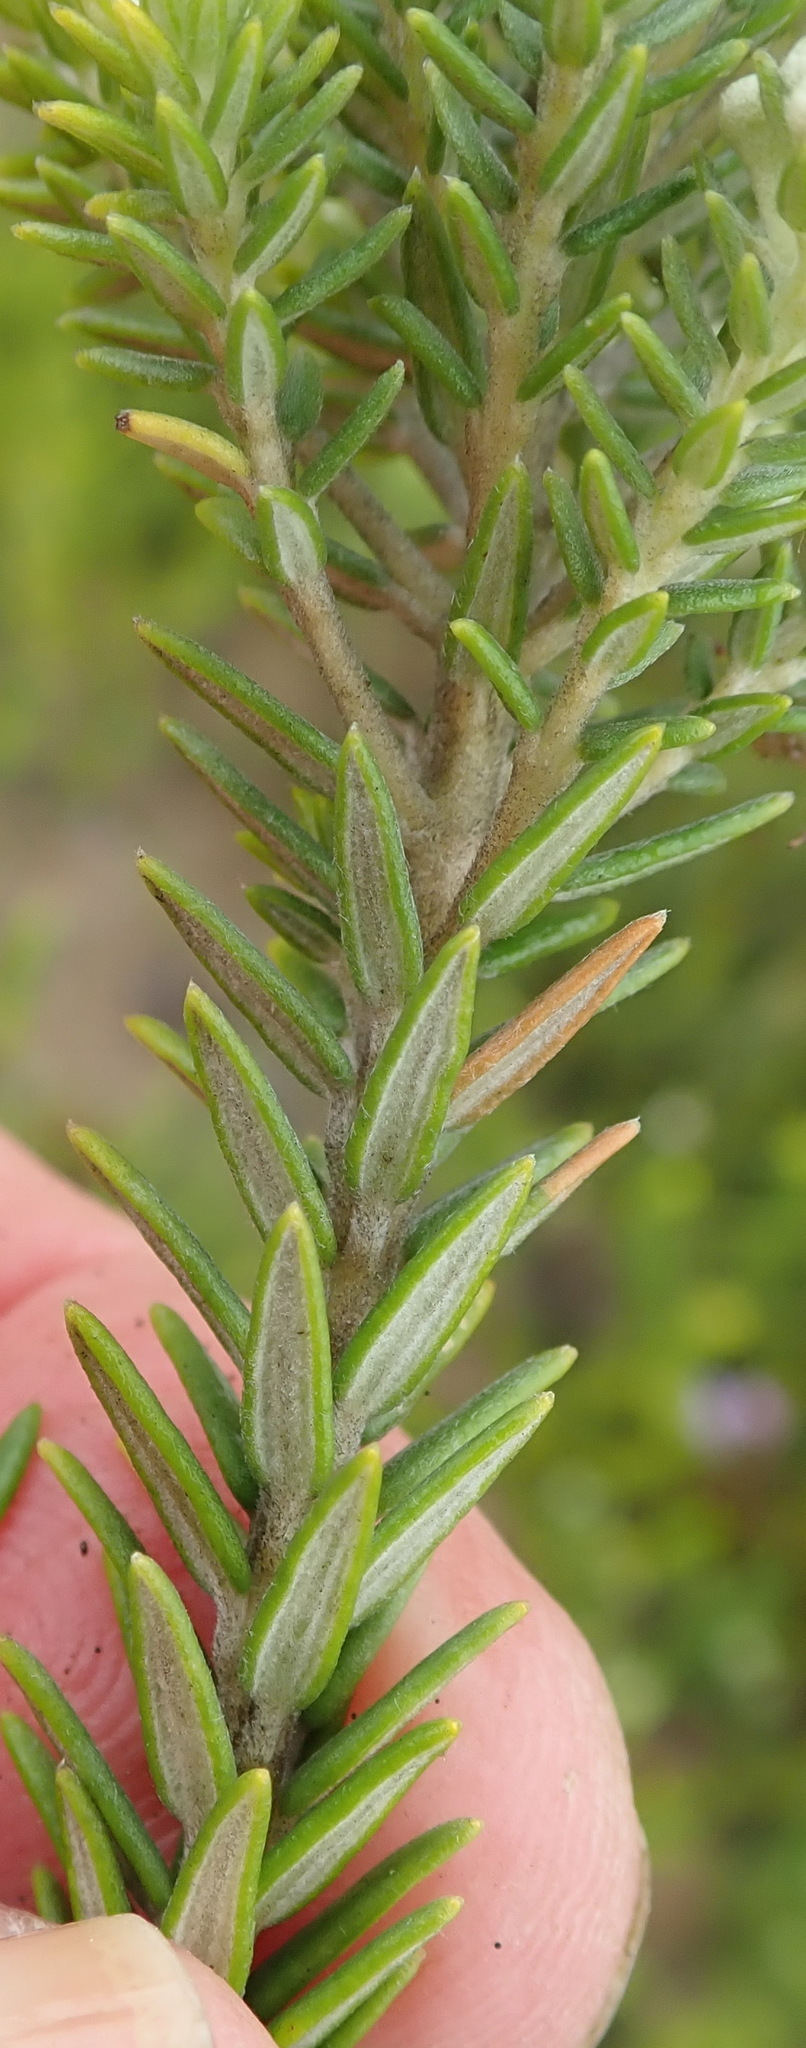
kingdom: Plantae
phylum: Tracheophyta
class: Magnoliopsida
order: Rosales
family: Rhamnaceae
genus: Phylica
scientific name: Phylica axillaris
